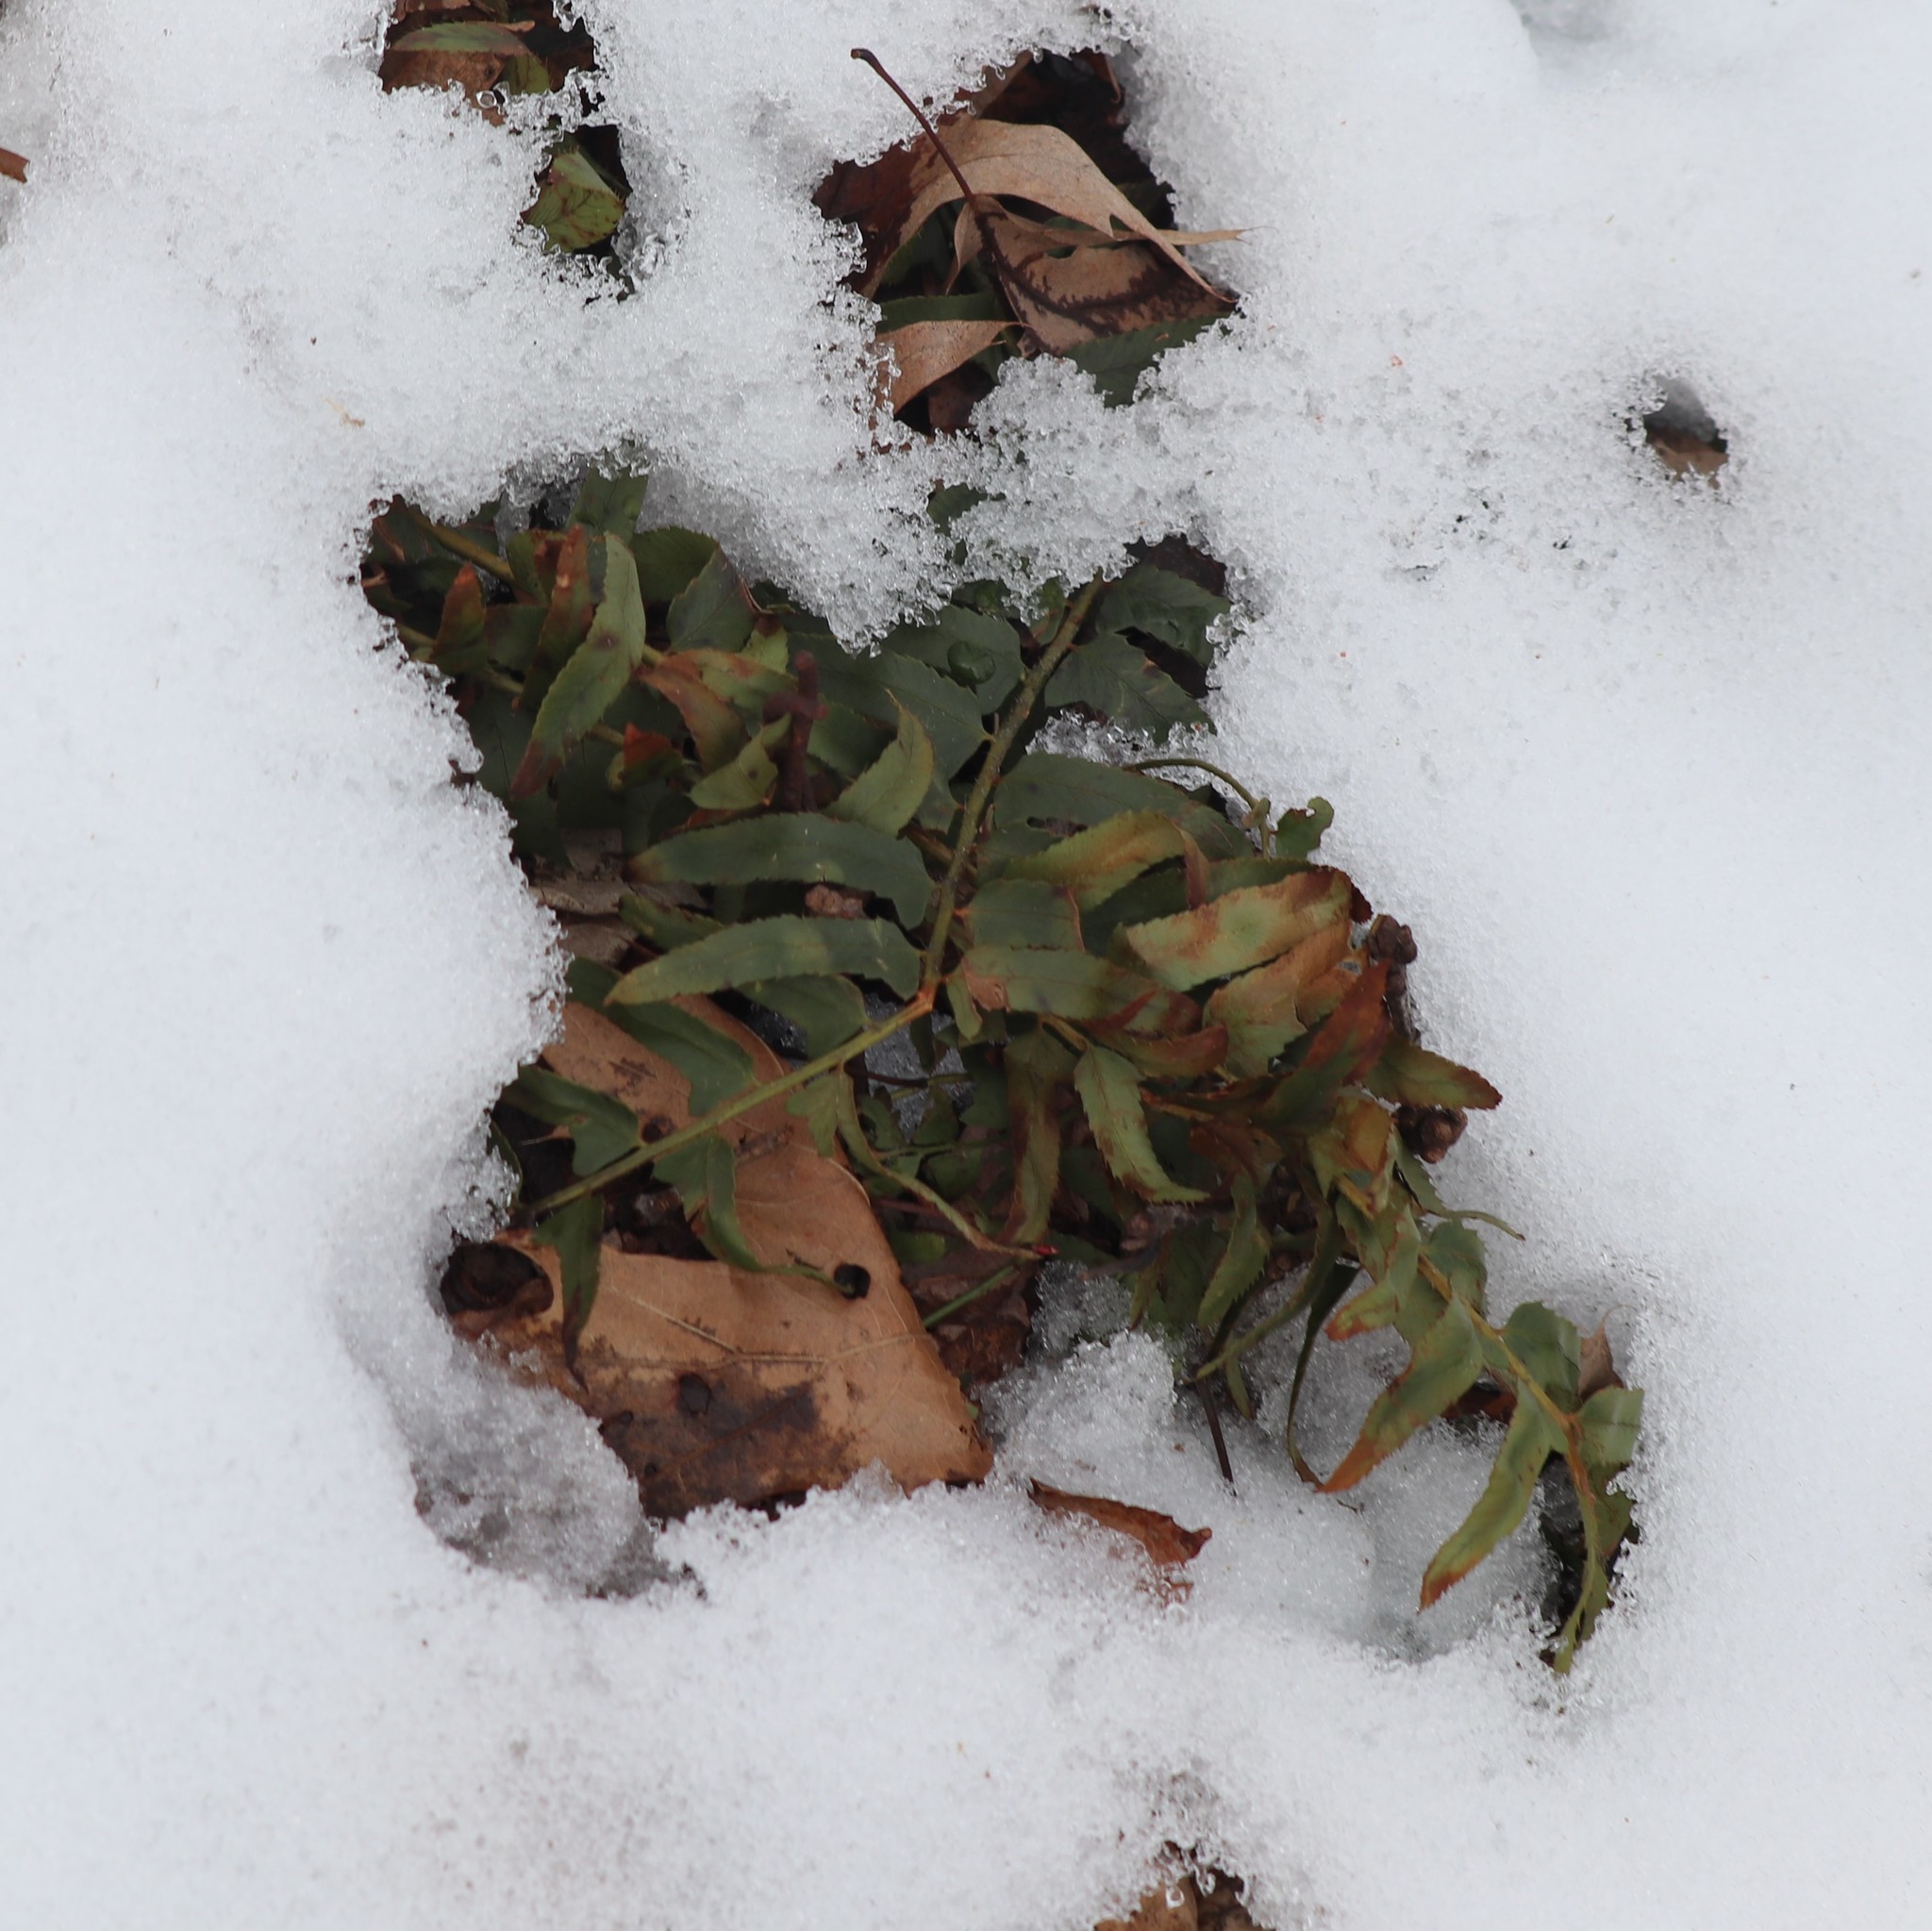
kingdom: Plantae
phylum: Tracheophyta
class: Polypodiopsida
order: Polypodiales
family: Dryopteridaceae
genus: Polystichum
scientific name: Polystichum acrostichoides
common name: Christmas fern
